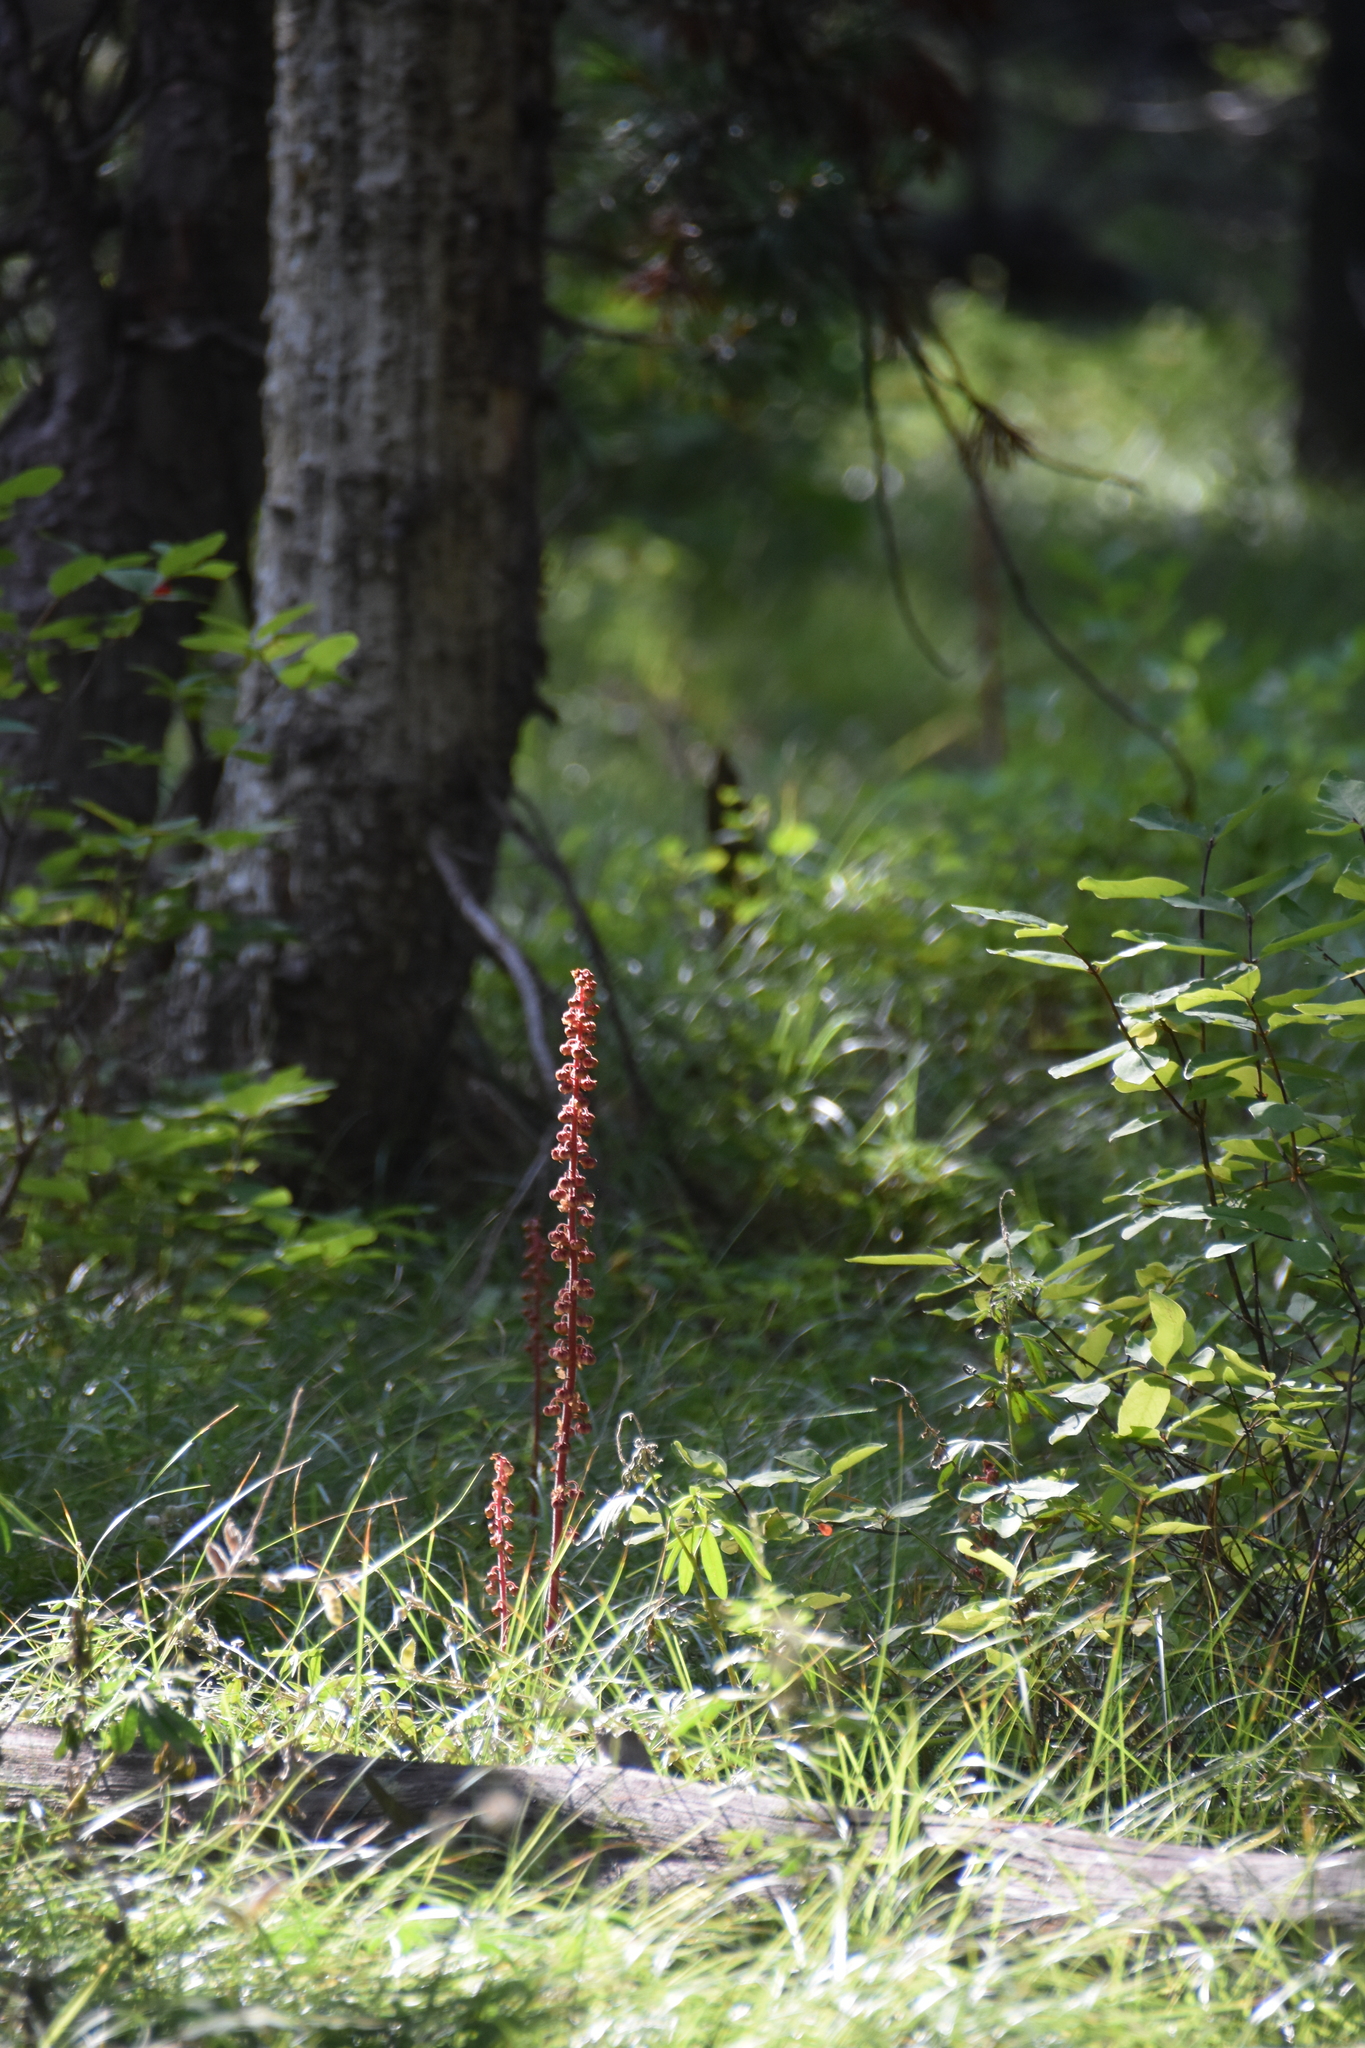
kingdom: Plantae
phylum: Tracheophyta
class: Magnoliopsida
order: Ericales
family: Ericaceae
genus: Pterospora
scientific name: Pterospora andromedea
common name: Giant bird's-nest
